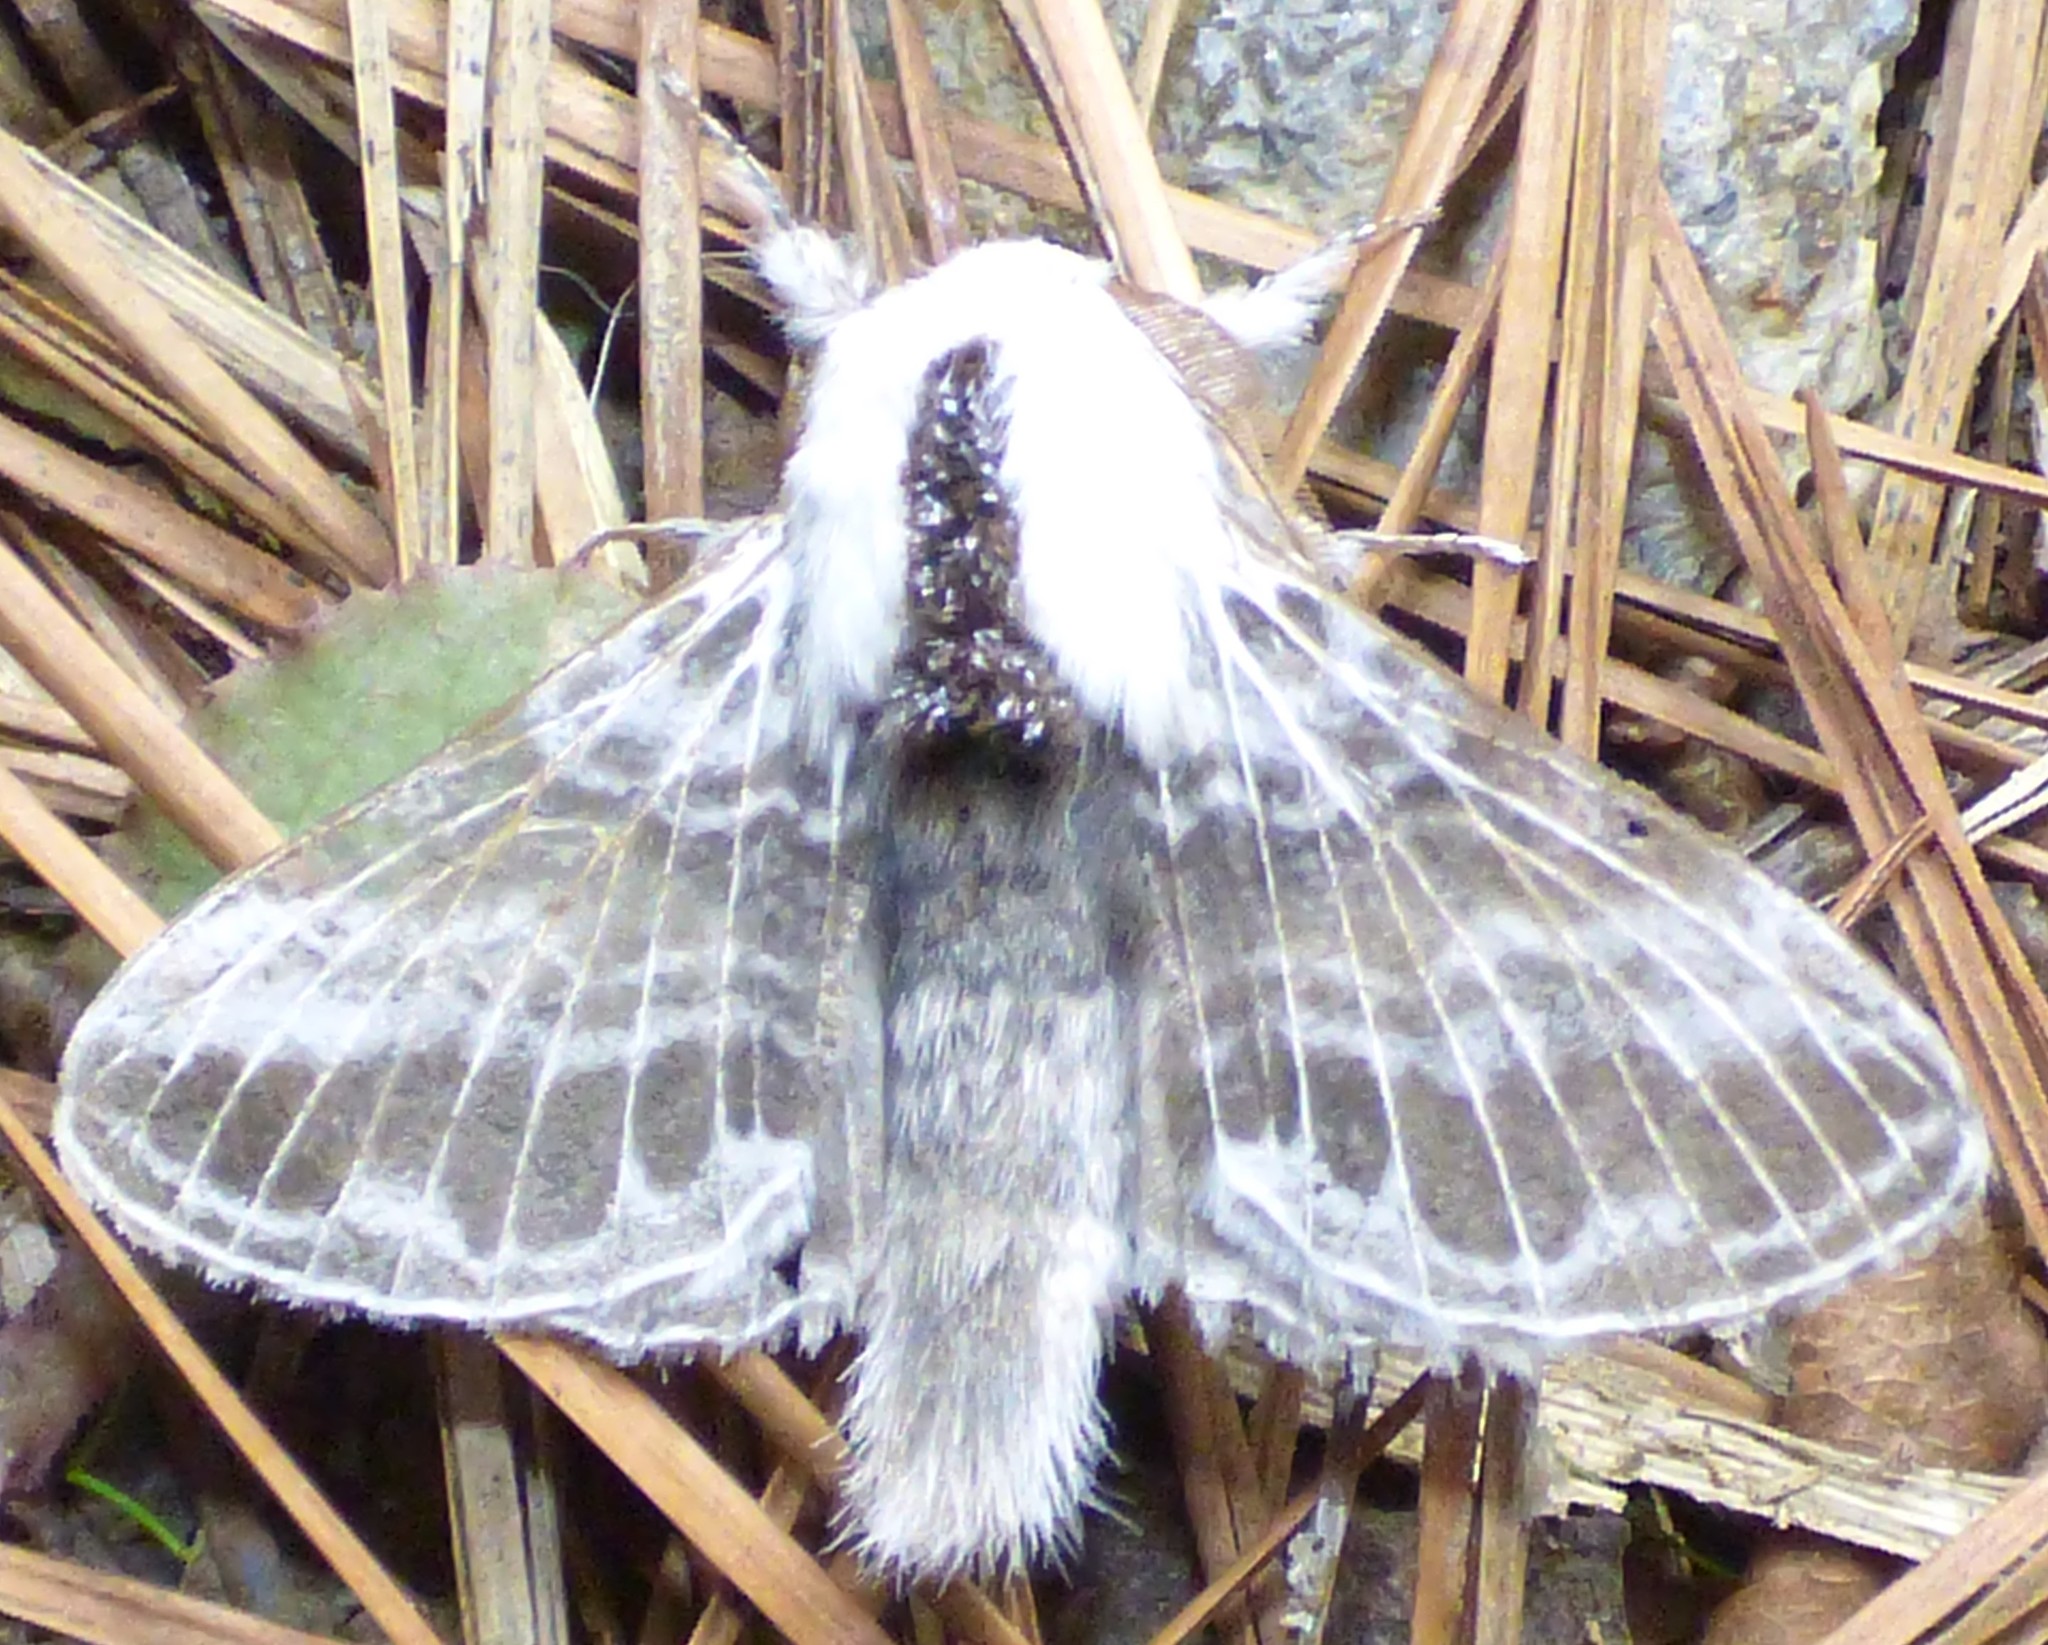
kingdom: Animalia
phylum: Arthropoda
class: Insecta
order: Lepidoptera
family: Lasiocampidae
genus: Tolype
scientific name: Tolype velleda
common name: Large tolype moth
